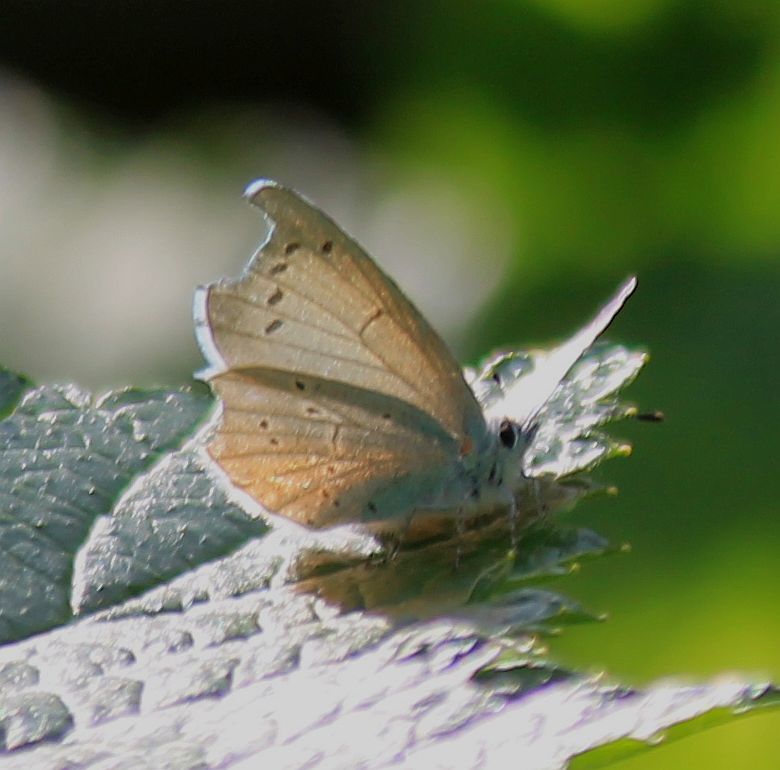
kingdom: Animalia
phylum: Arthropoda
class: Insecta
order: Lepidoptera
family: Lycaenidae
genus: Celastrina
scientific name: Celastrina argiolus
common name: Holly blue
